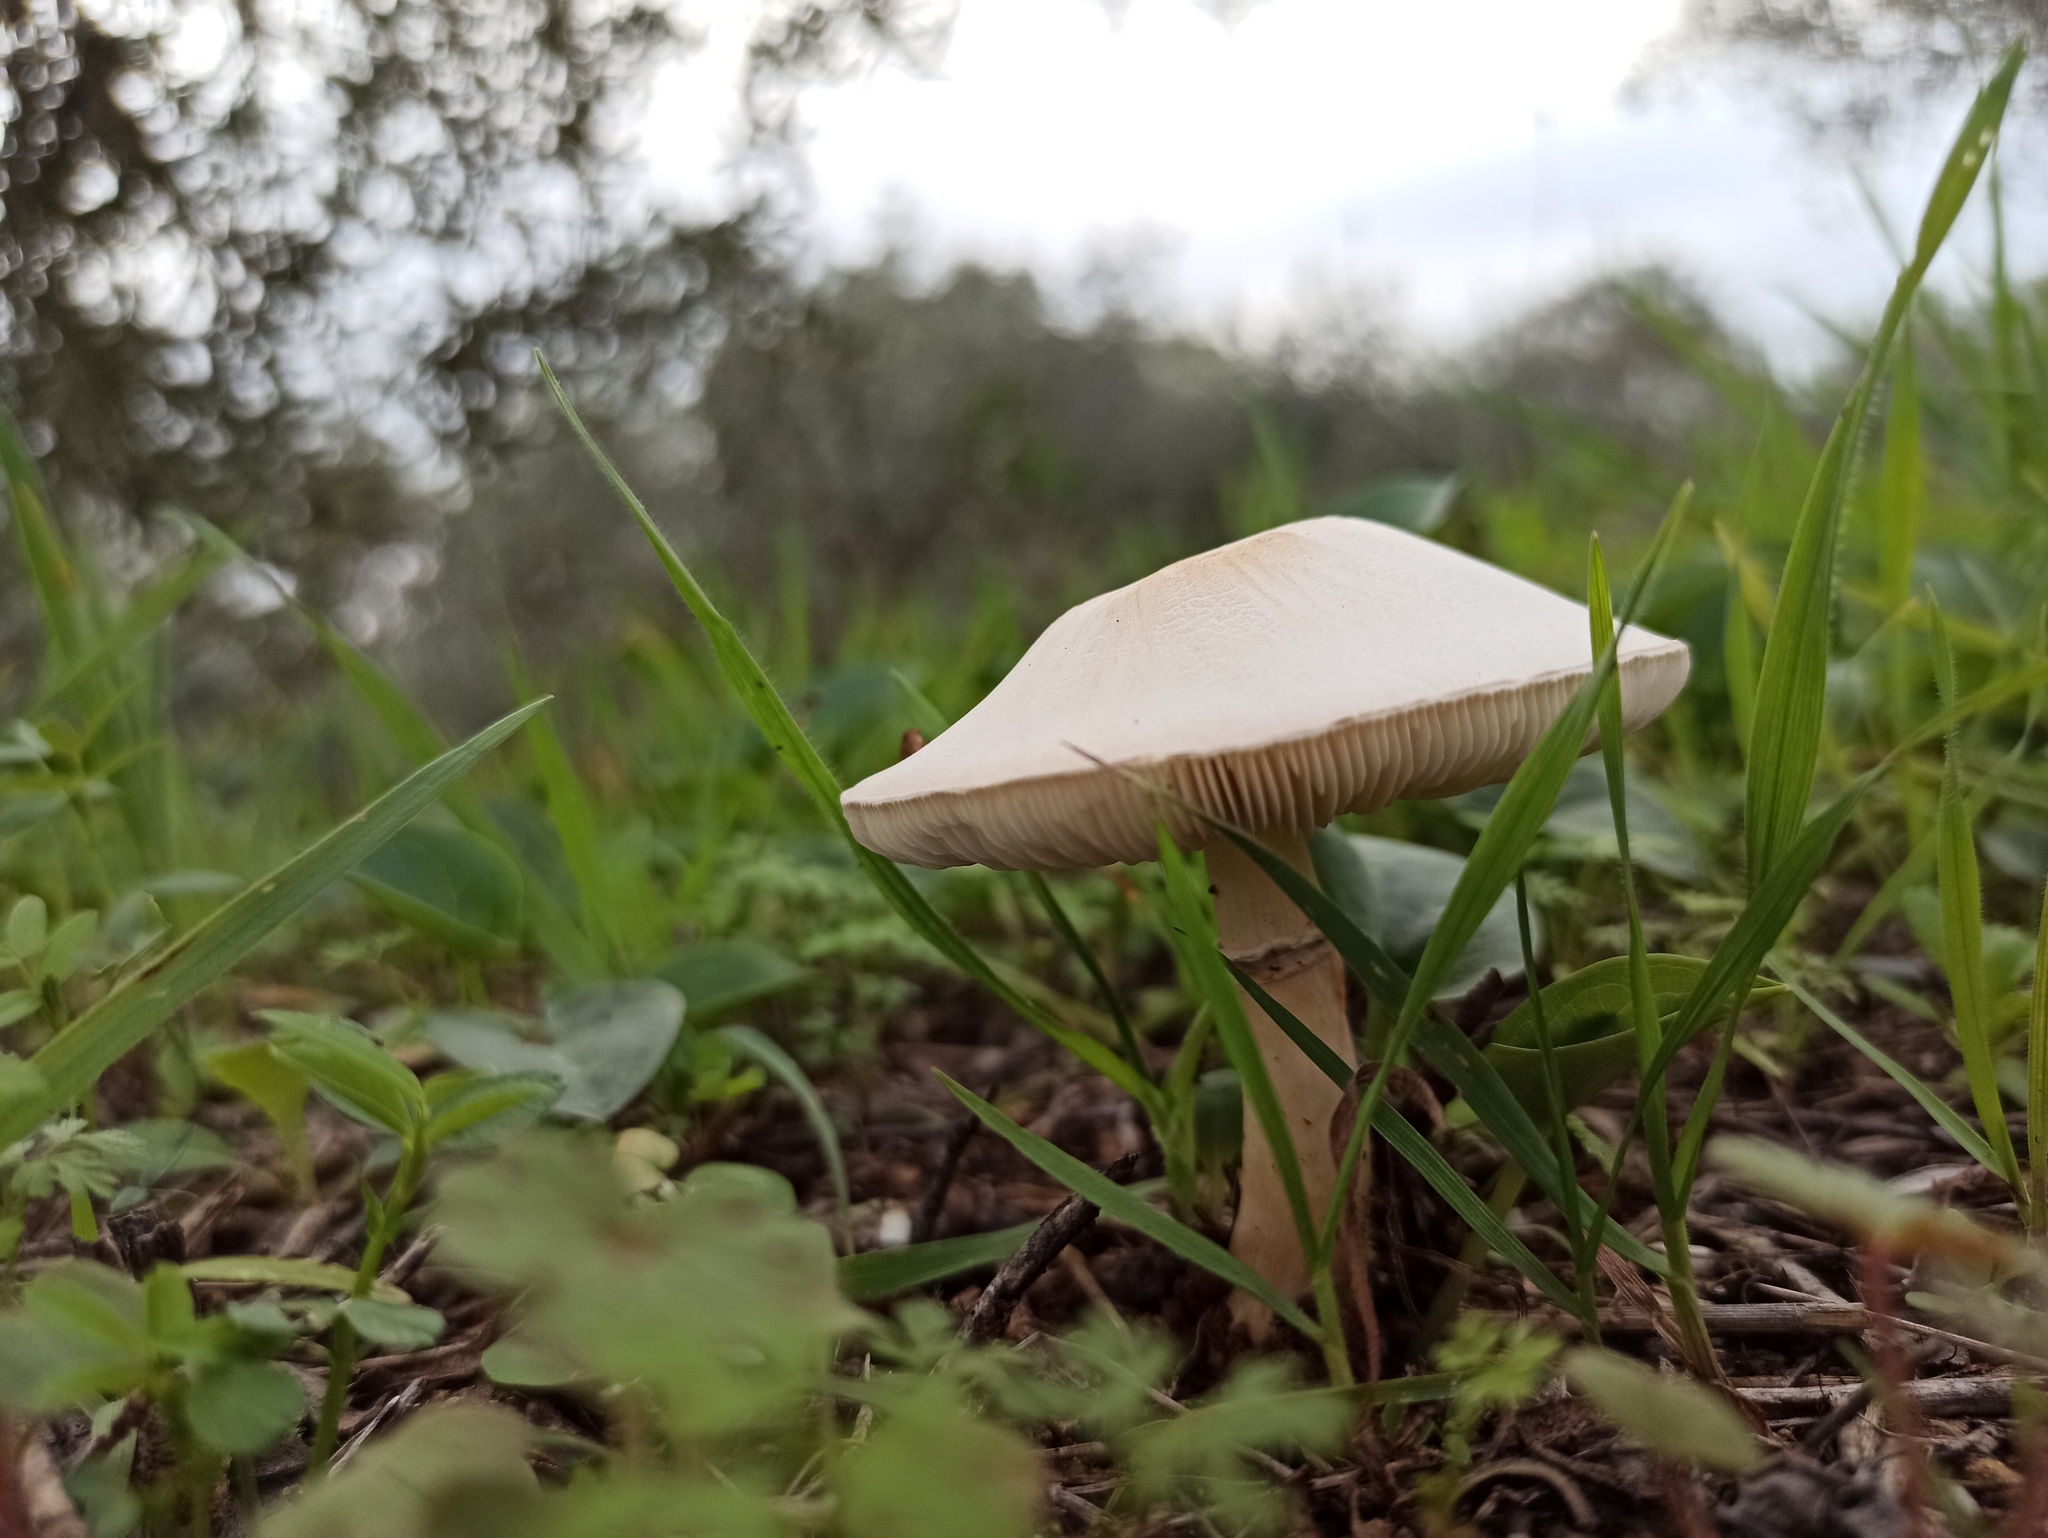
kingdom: Fungi
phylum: Basidiomycota
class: Agaricomycetes
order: Agaricales
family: Agaricaceae
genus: Leucoagaricus
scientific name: Leucoagaricus leucothites
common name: White dapperling
